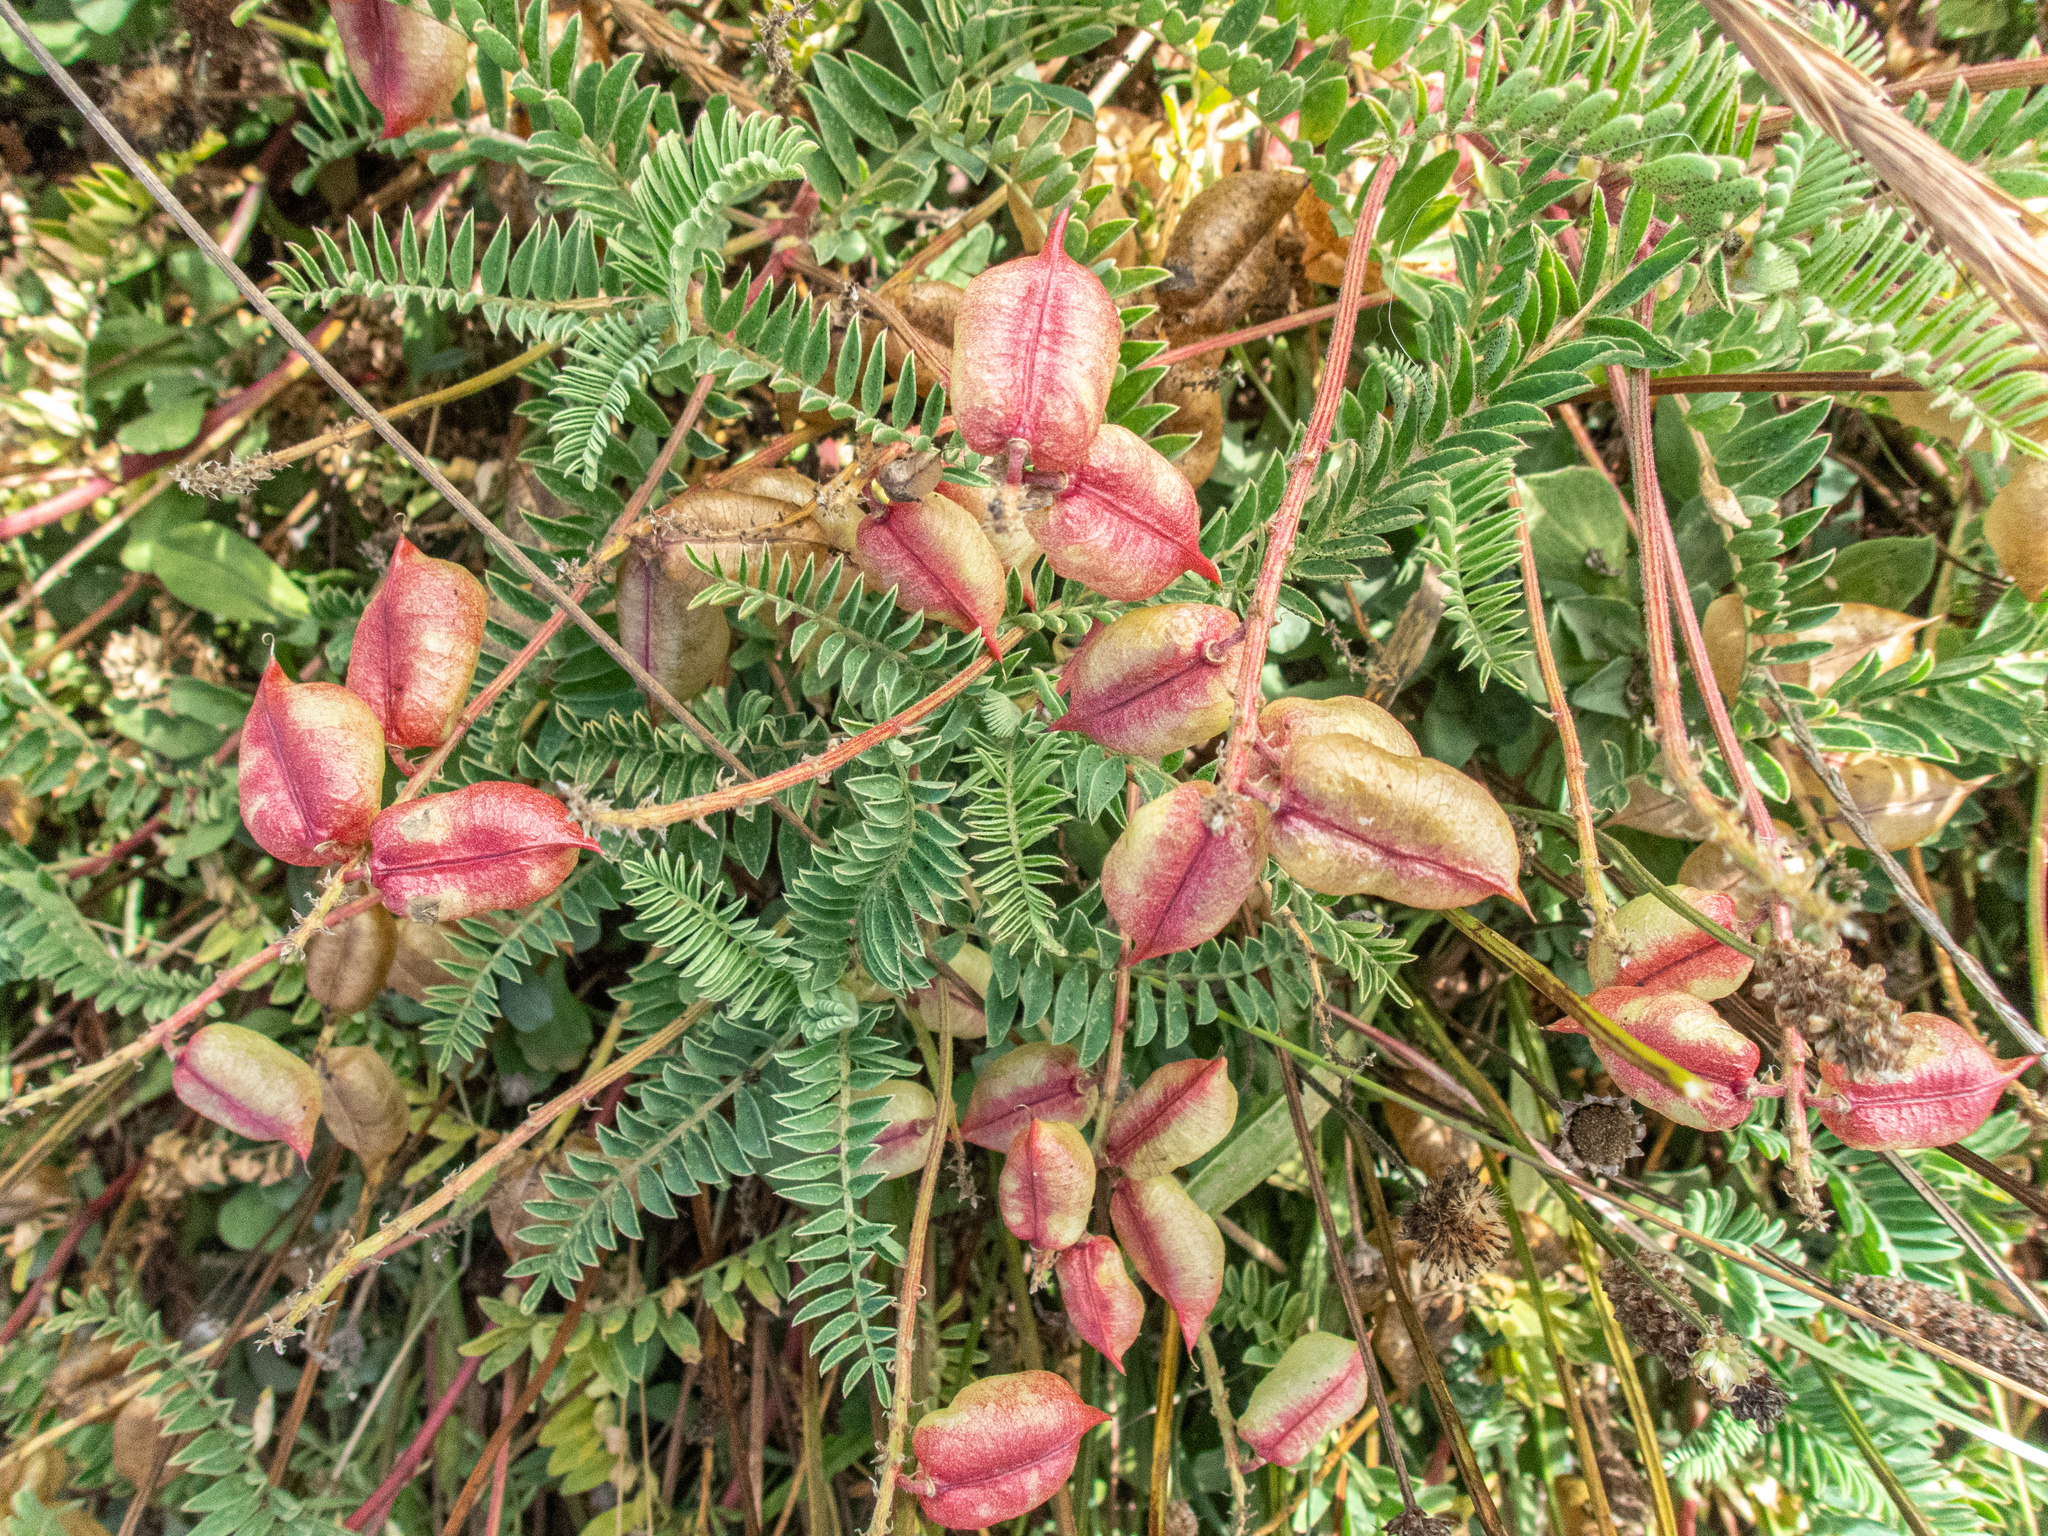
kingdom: Plantae
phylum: Tracheophyta
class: Magnoliopsida
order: Fabales
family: Fabaceae
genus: Astragalus
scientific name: Astragalus nuttallii
